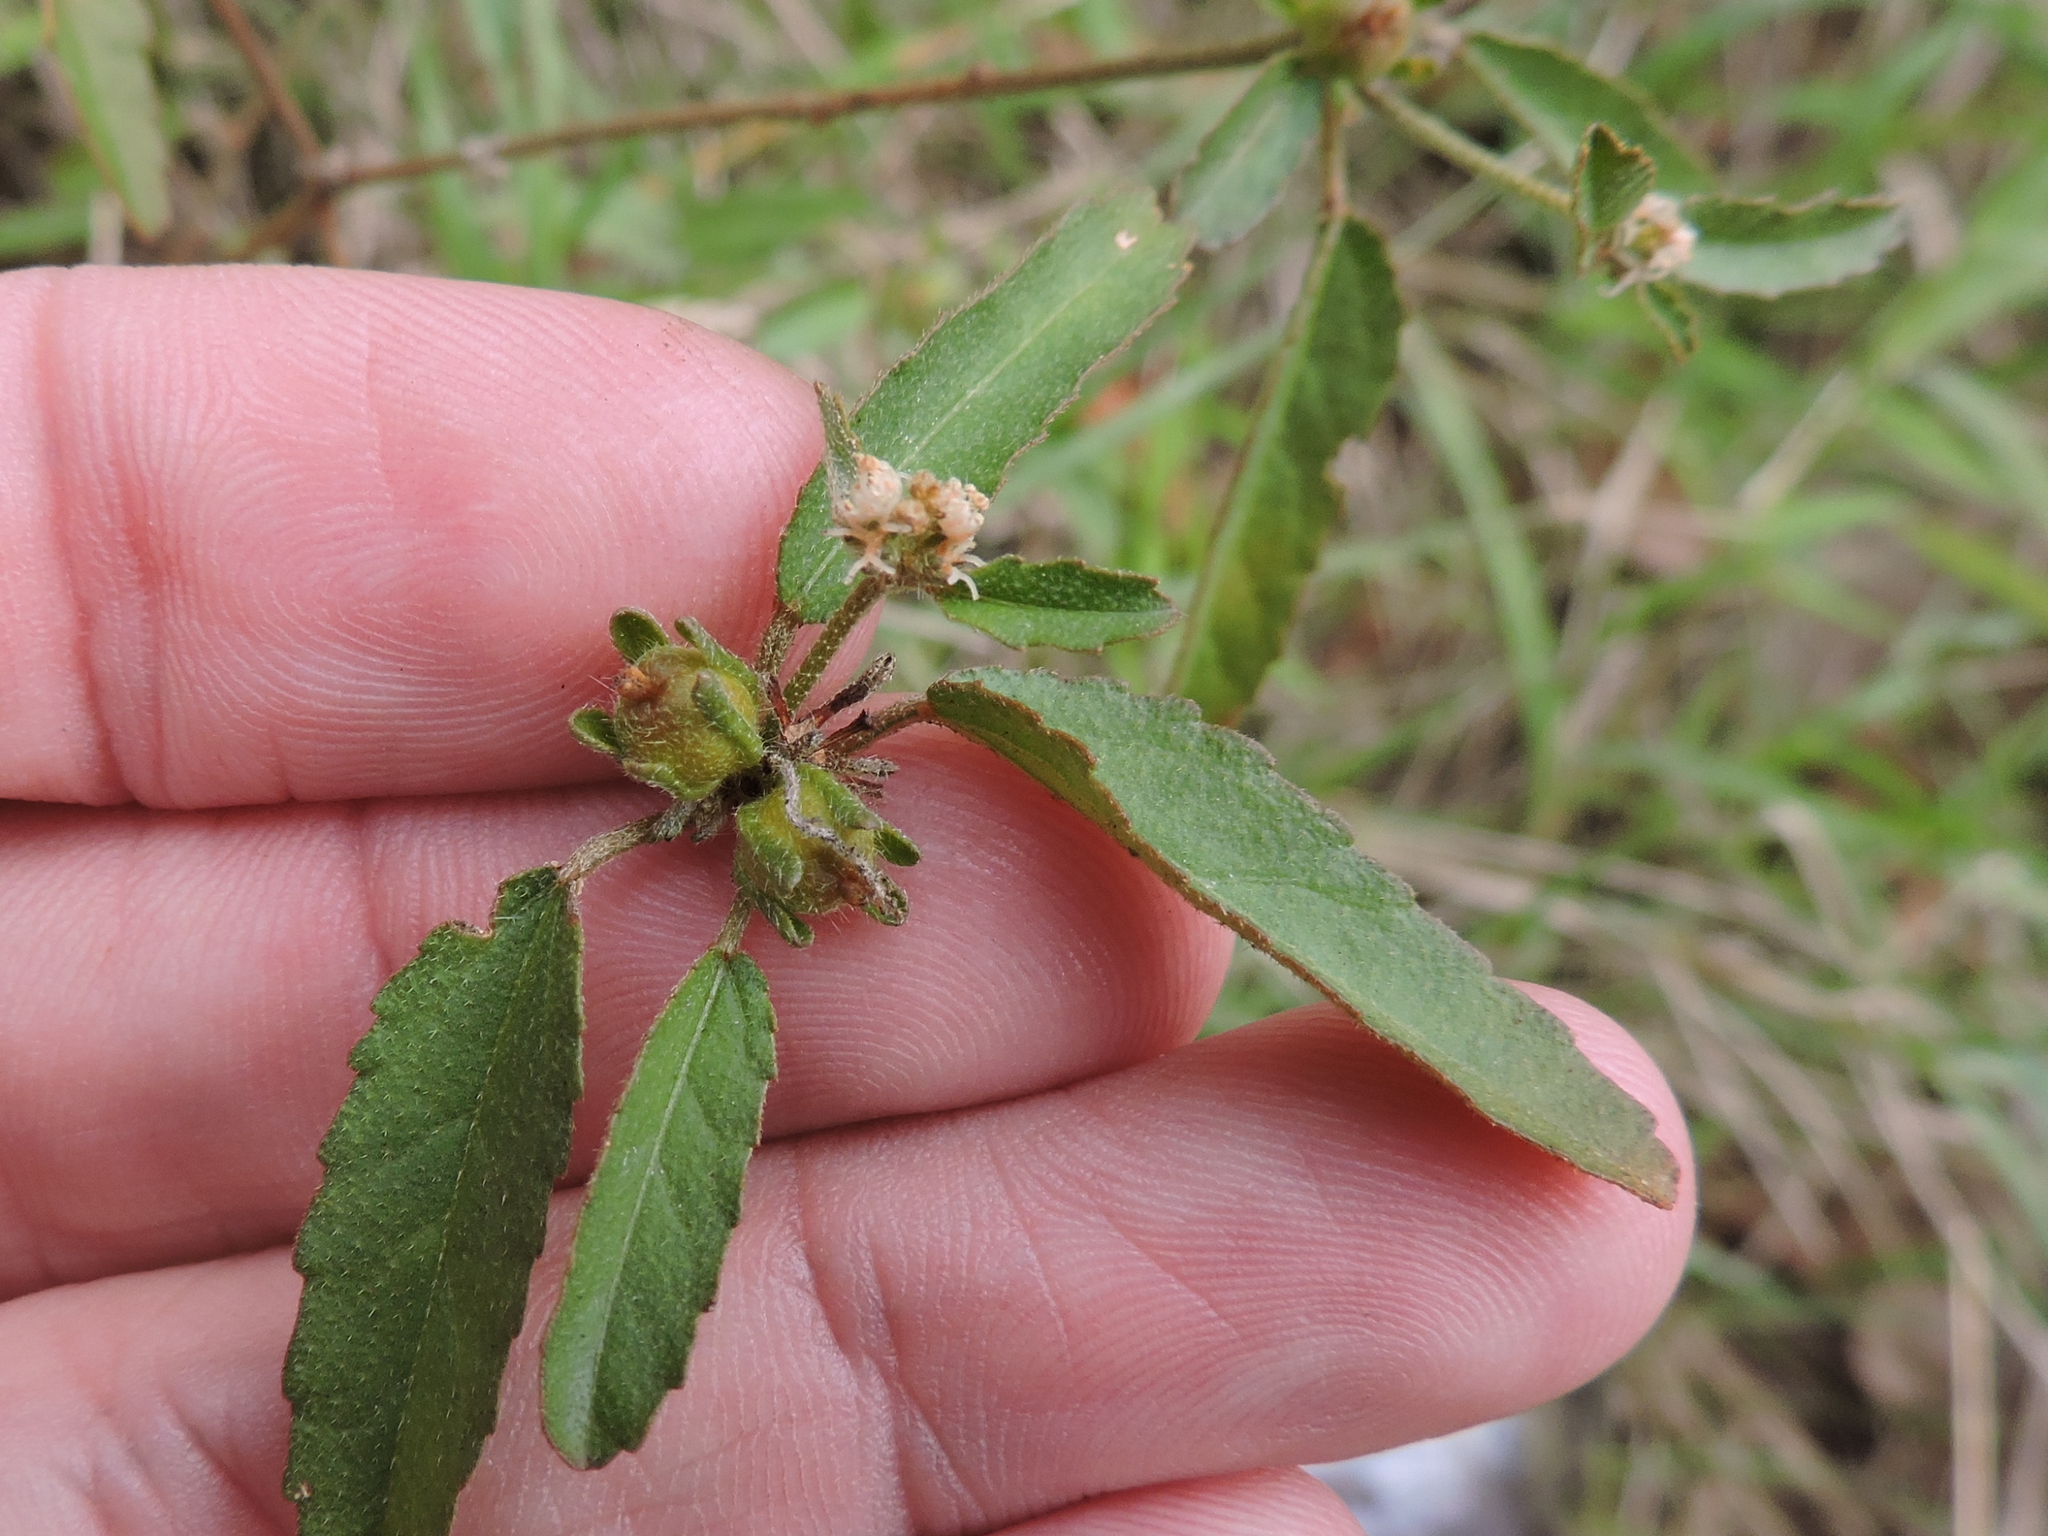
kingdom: Plantae
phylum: Tracheophyta
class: Magnoliopsida
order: Malpighiales
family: Euphorbiaceae
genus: Croton
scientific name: Croton glandulosus
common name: Tropic croton
